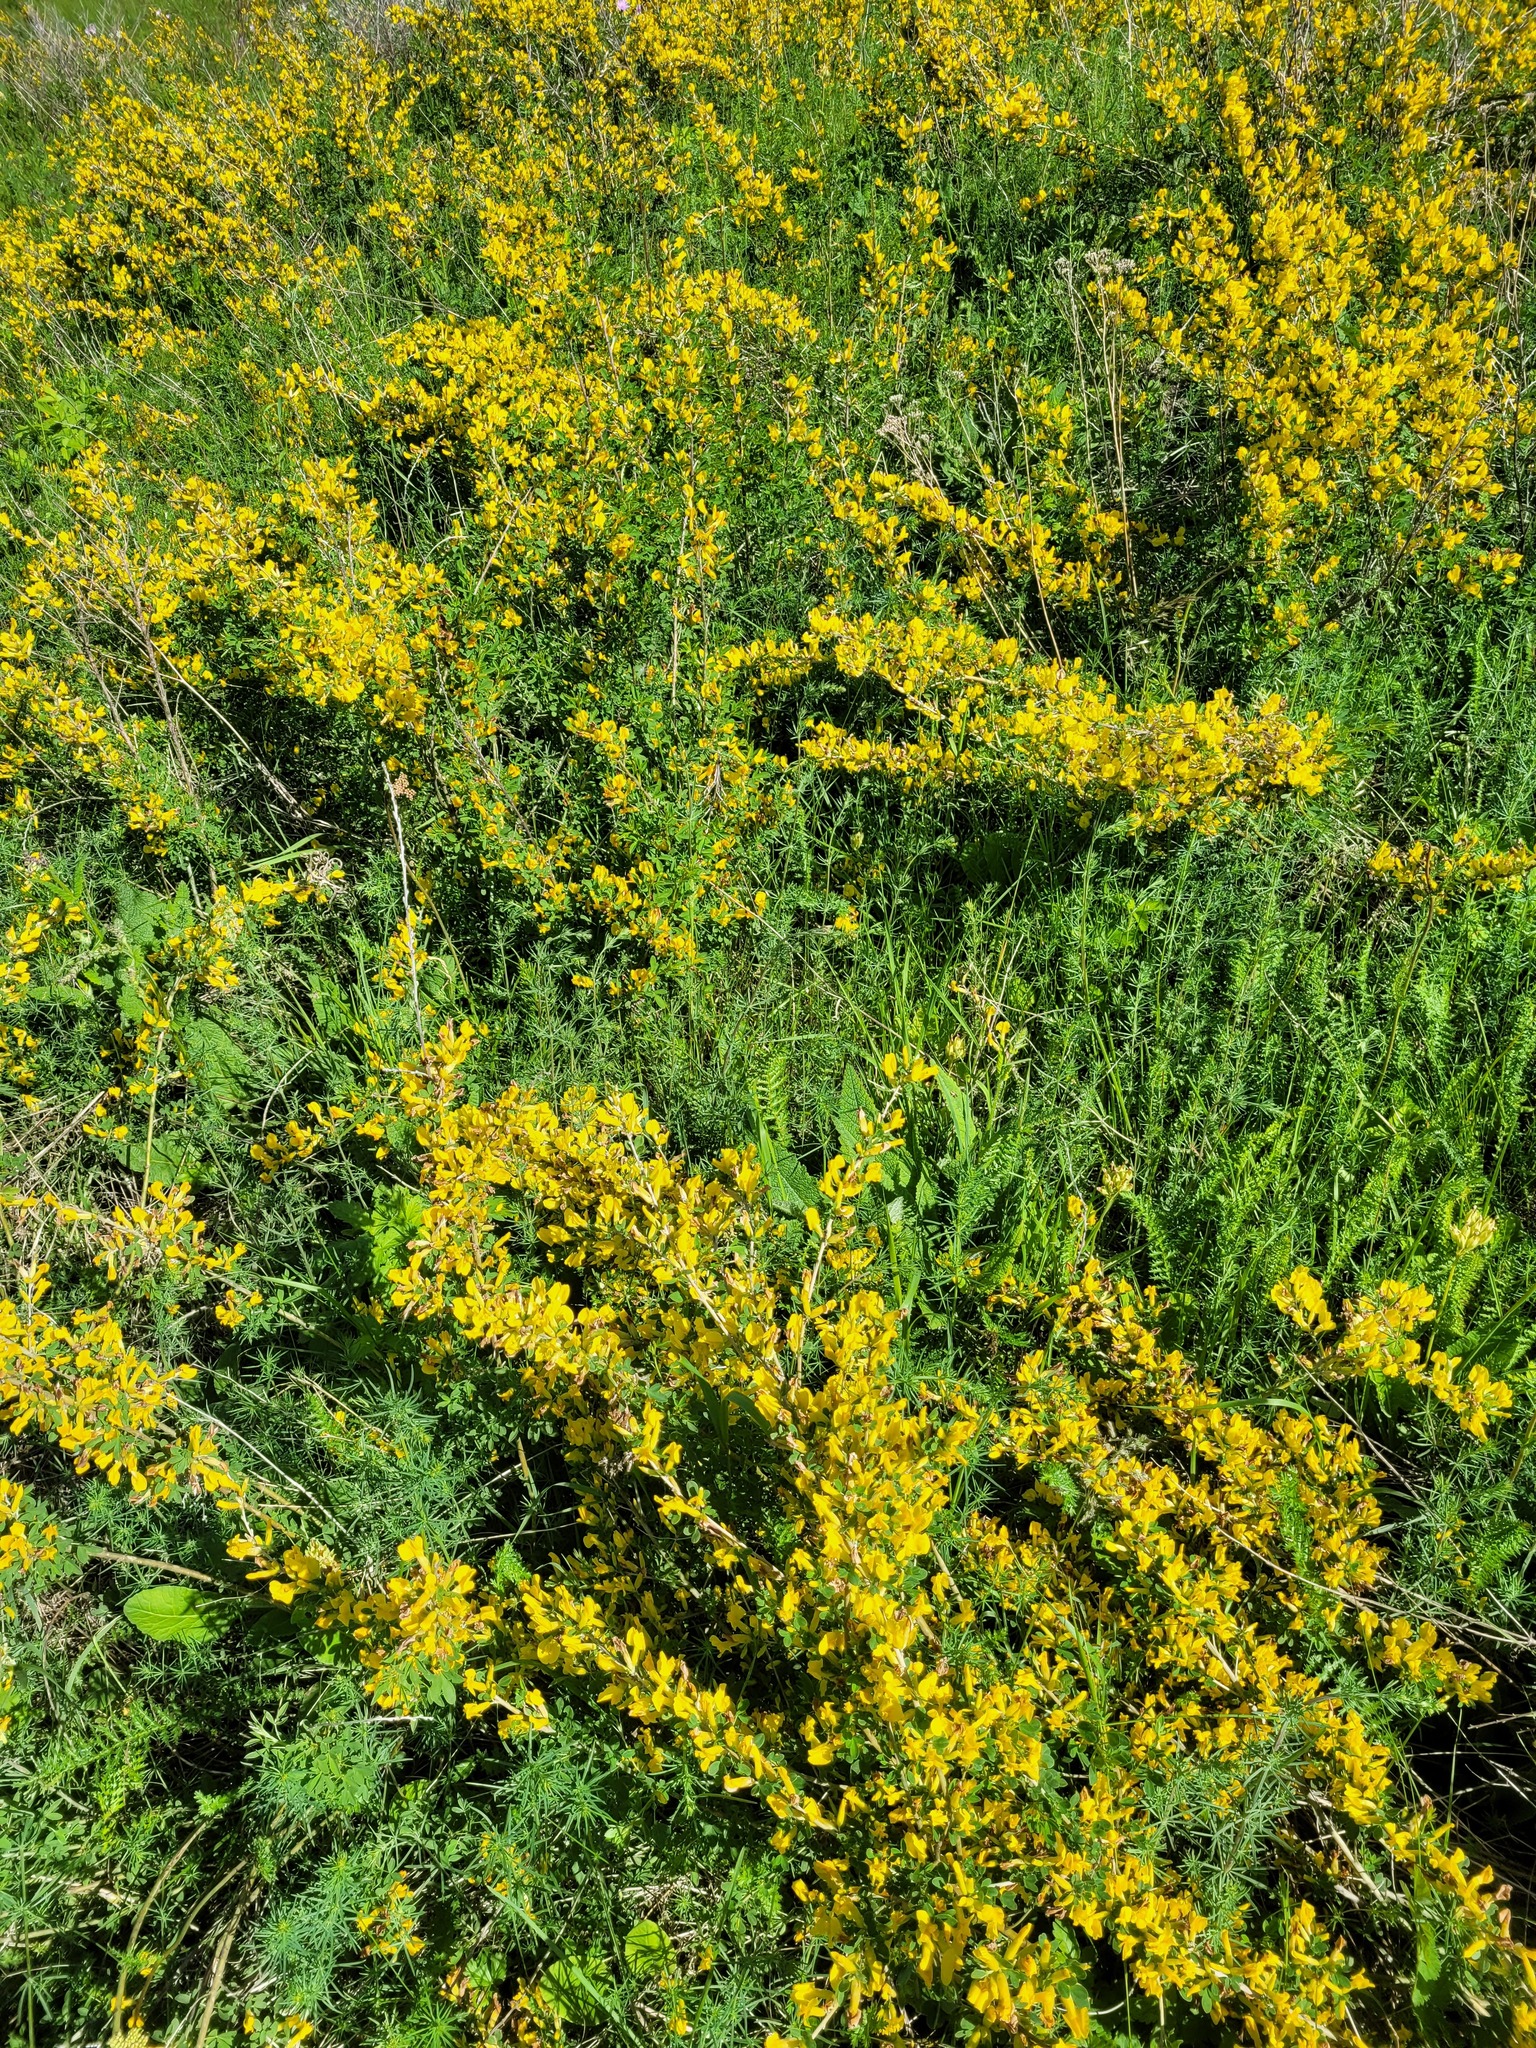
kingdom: Plantae
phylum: Tracheophyta
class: Magnoliopsida
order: Fabales
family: Fabaceae
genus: Chamaecytisus
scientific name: Chamaecytisus ruthenicus
